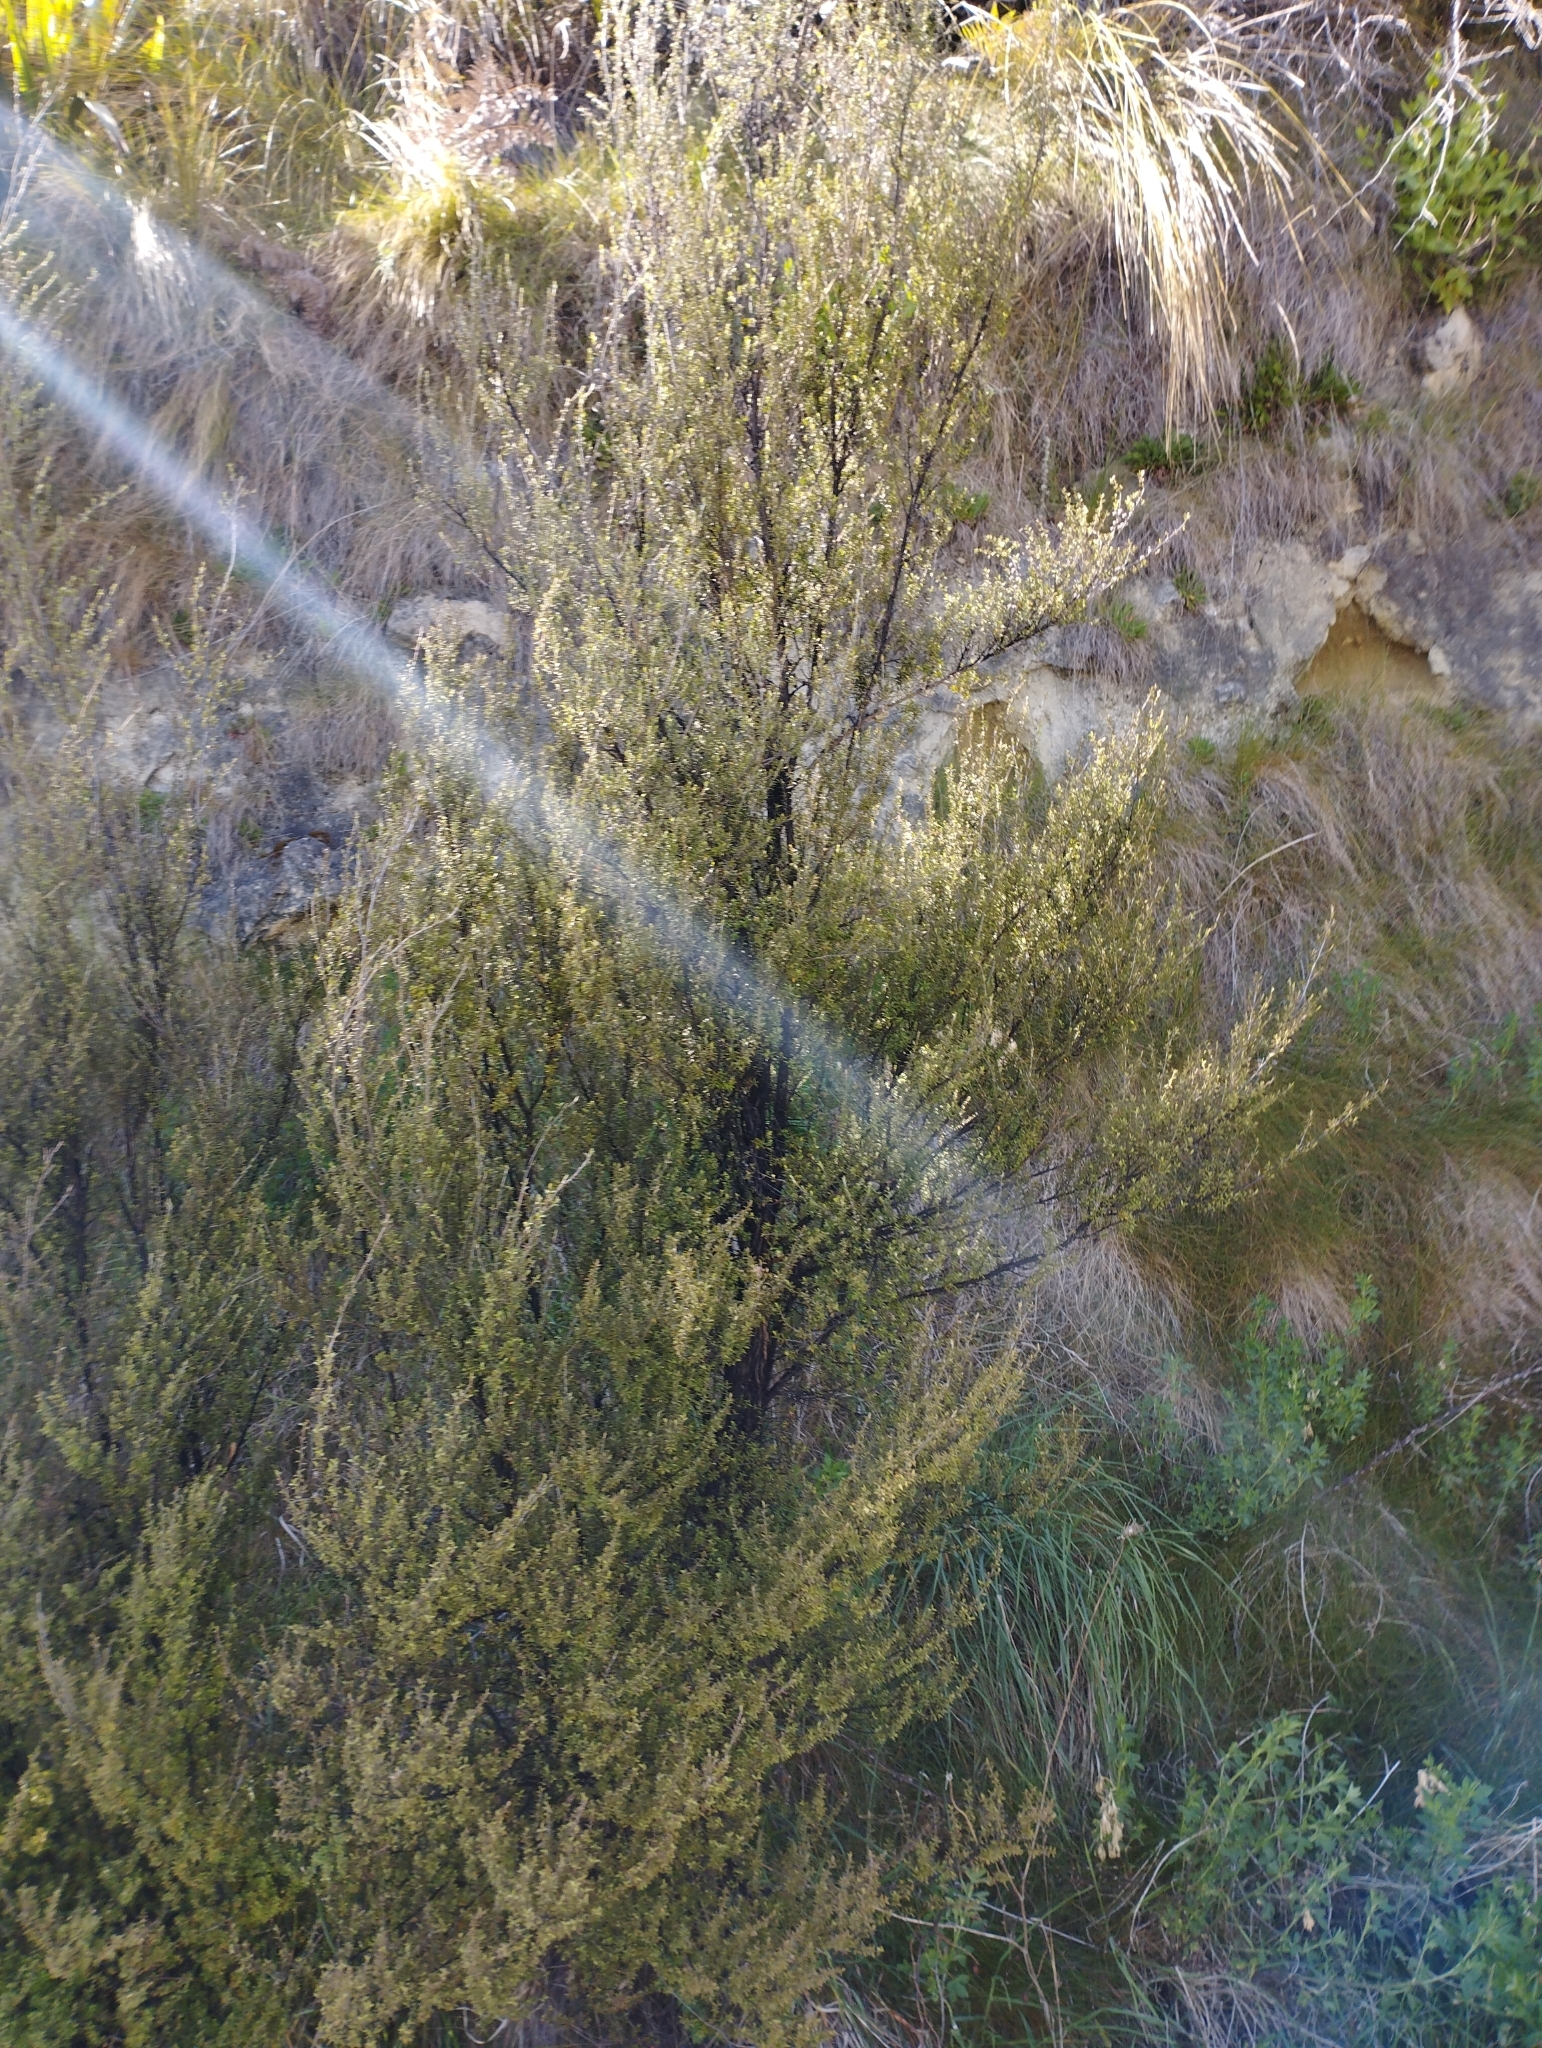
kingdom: Plantae
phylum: Tracheophyta
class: Magnoliopsida
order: Myrtales
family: Myrtaceae
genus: Leptospermum
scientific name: Leptospermum scoparium
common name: Broom tea-tree
